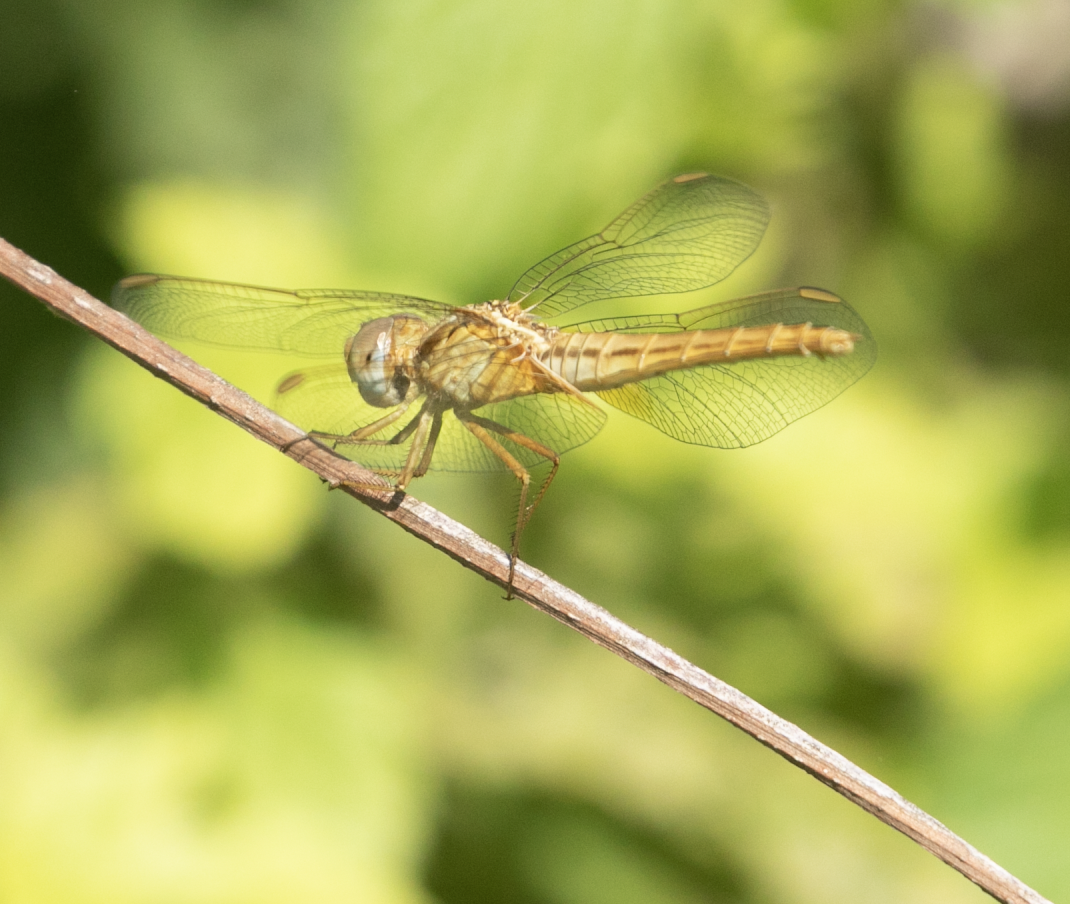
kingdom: Animalia
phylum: Arthropoda
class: Insecta
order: Odonata
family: Libellulidae
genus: Crocothemis
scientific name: Crocothemis erythraea
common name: Scarlet dragonfly
